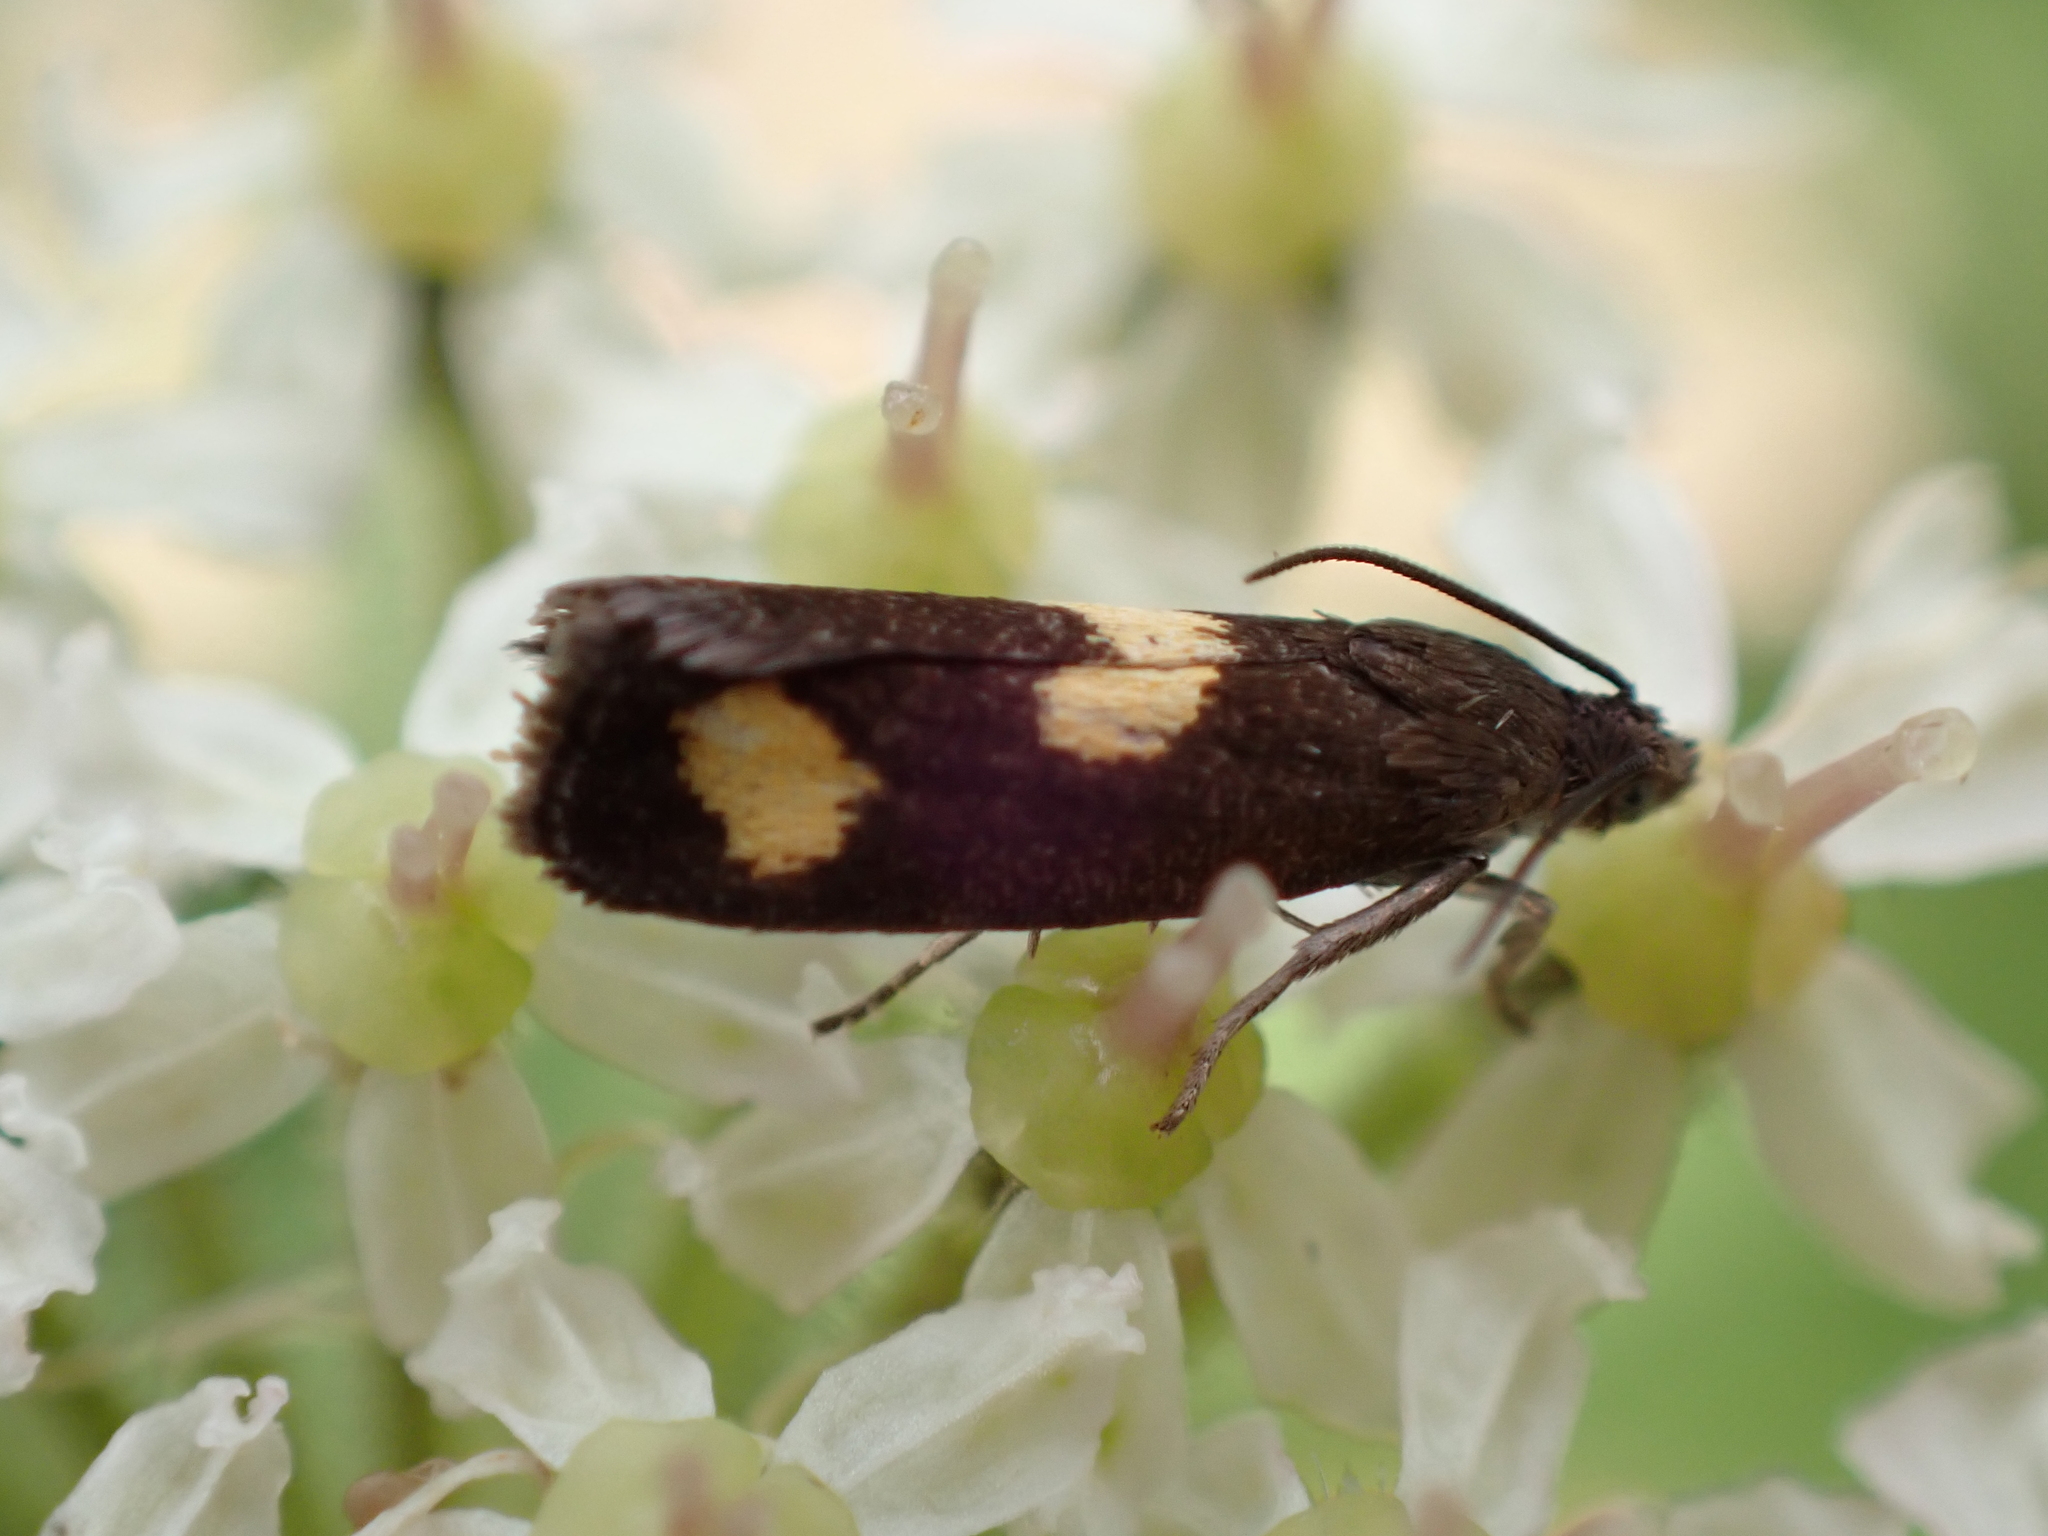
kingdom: Animalia
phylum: Arthropoda
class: Insecta
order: Lepidoptera
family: Tortricidae
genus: Pammene
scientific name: Pammene aurana
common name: Orange-spot piercer
